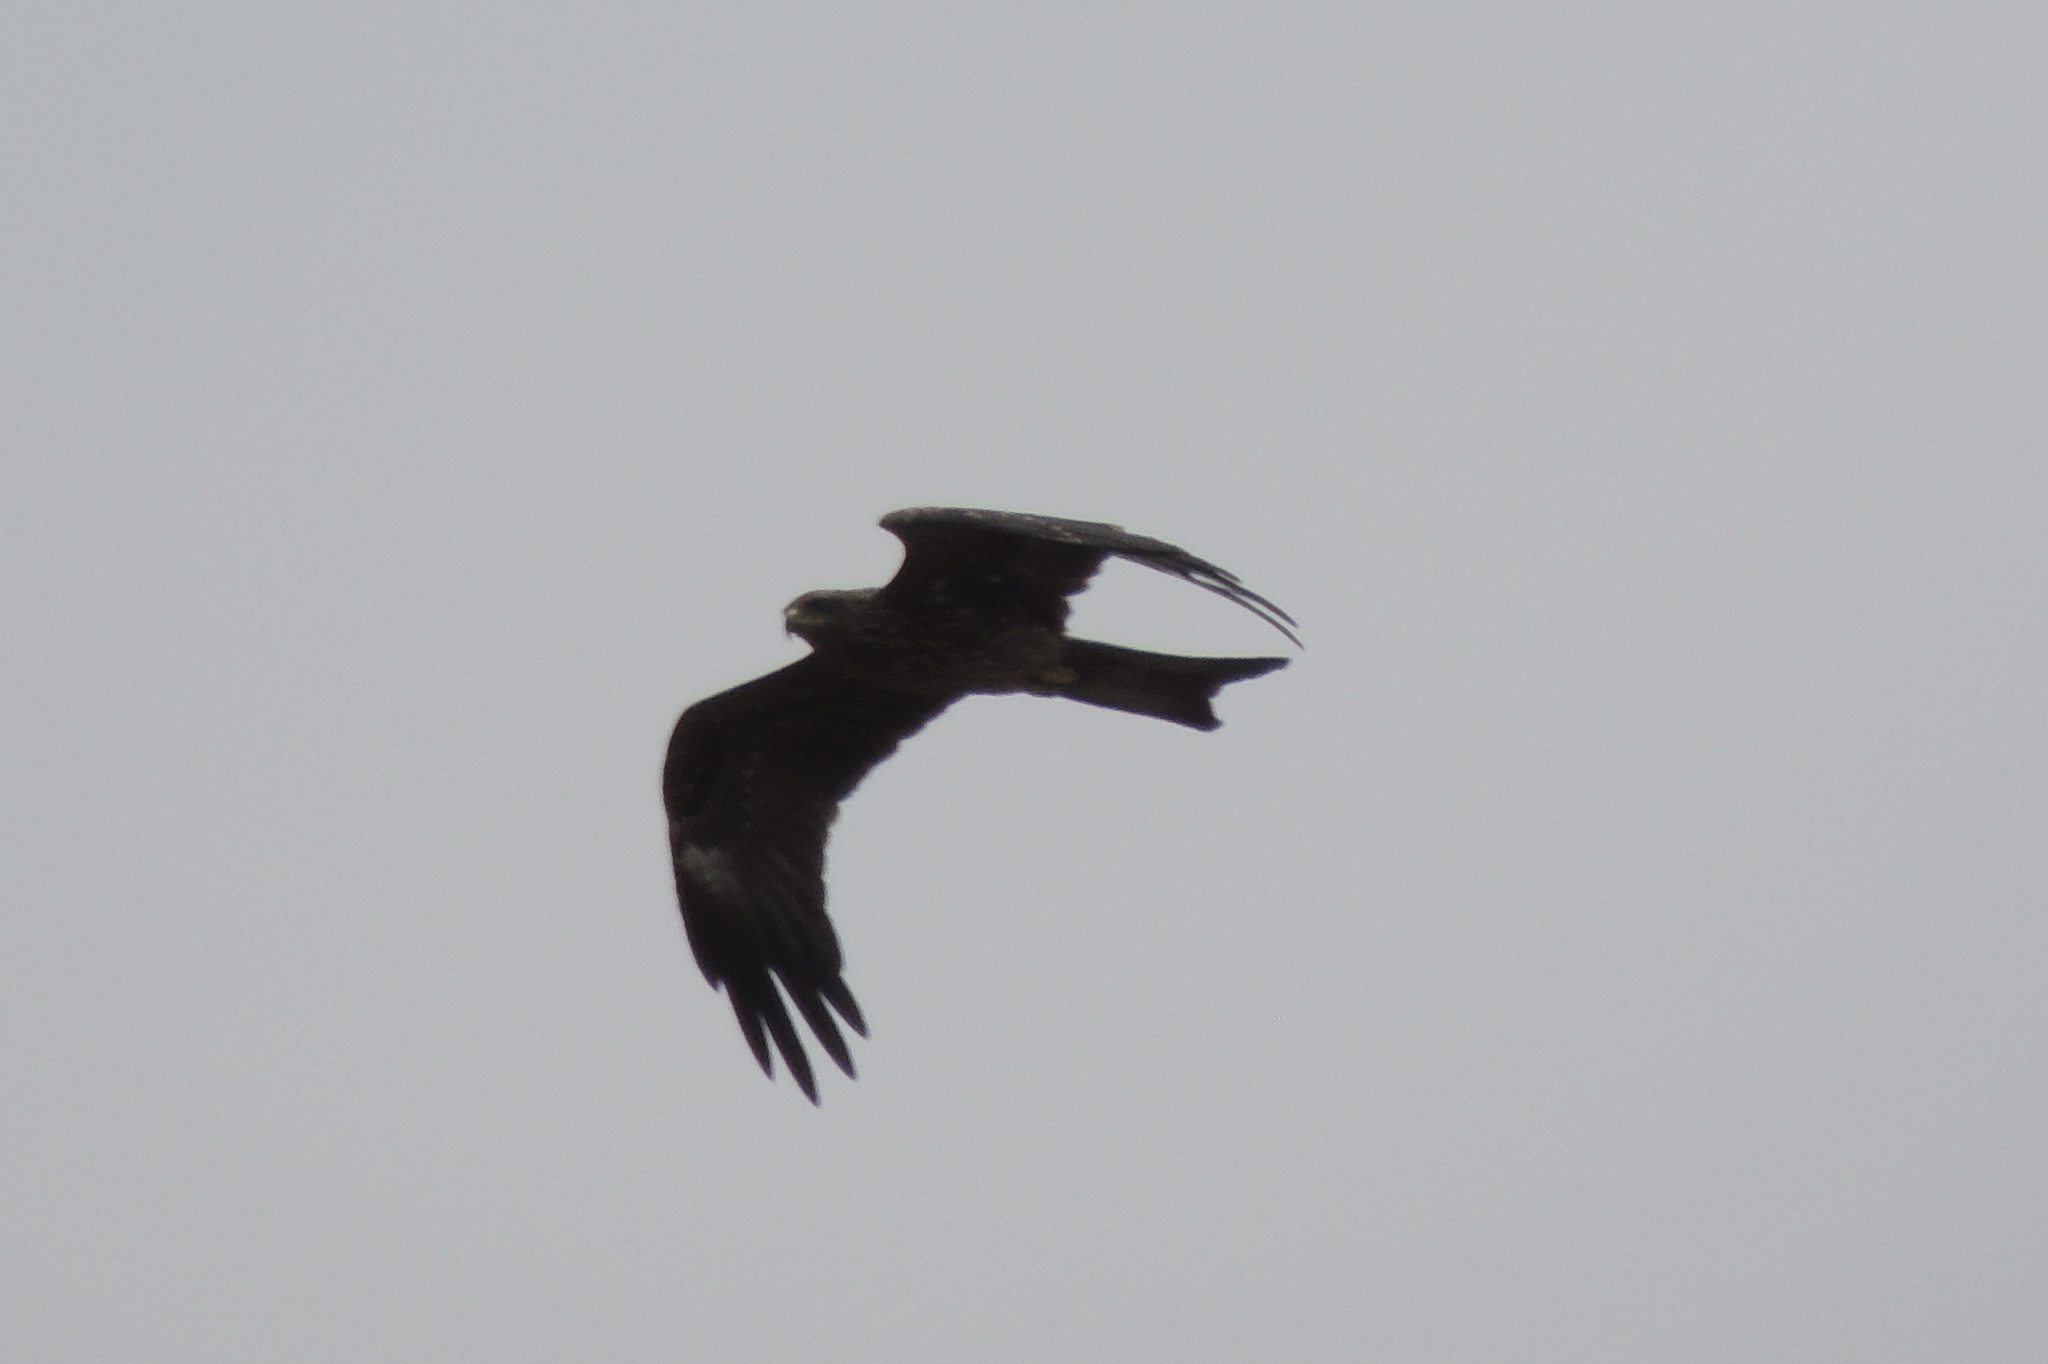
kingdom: Animalia
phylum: Chordata
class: Aves
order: Accipitriformes
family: Accipitridae
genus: Milvus
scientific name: Milvus migrans
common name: Black kite
